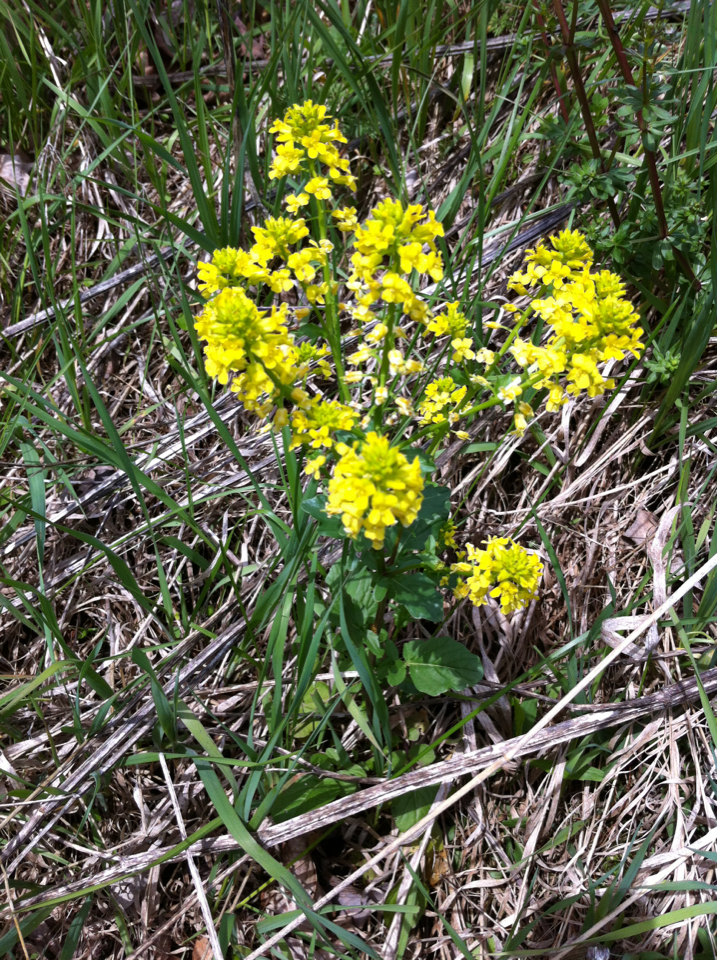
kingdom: Plantae
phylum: Tracheophyta
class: Magnoliopsida
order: Brassicales
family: Brassicaceae
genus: Barbarea
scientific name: Barbarea vulgaris
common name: Cressy-greens
